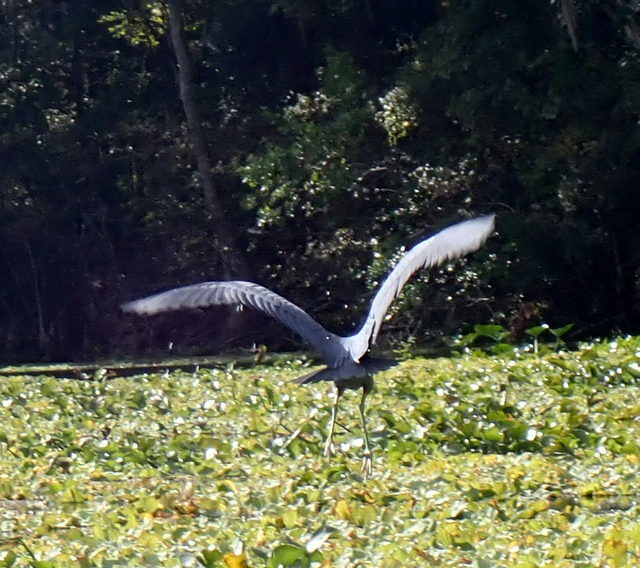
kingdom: Animalia
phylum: Chordata
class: Aves
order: Pelecaniformes
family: Ardeidae
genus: Egretta
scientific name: Egretta caerulea
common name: Little blue heron
